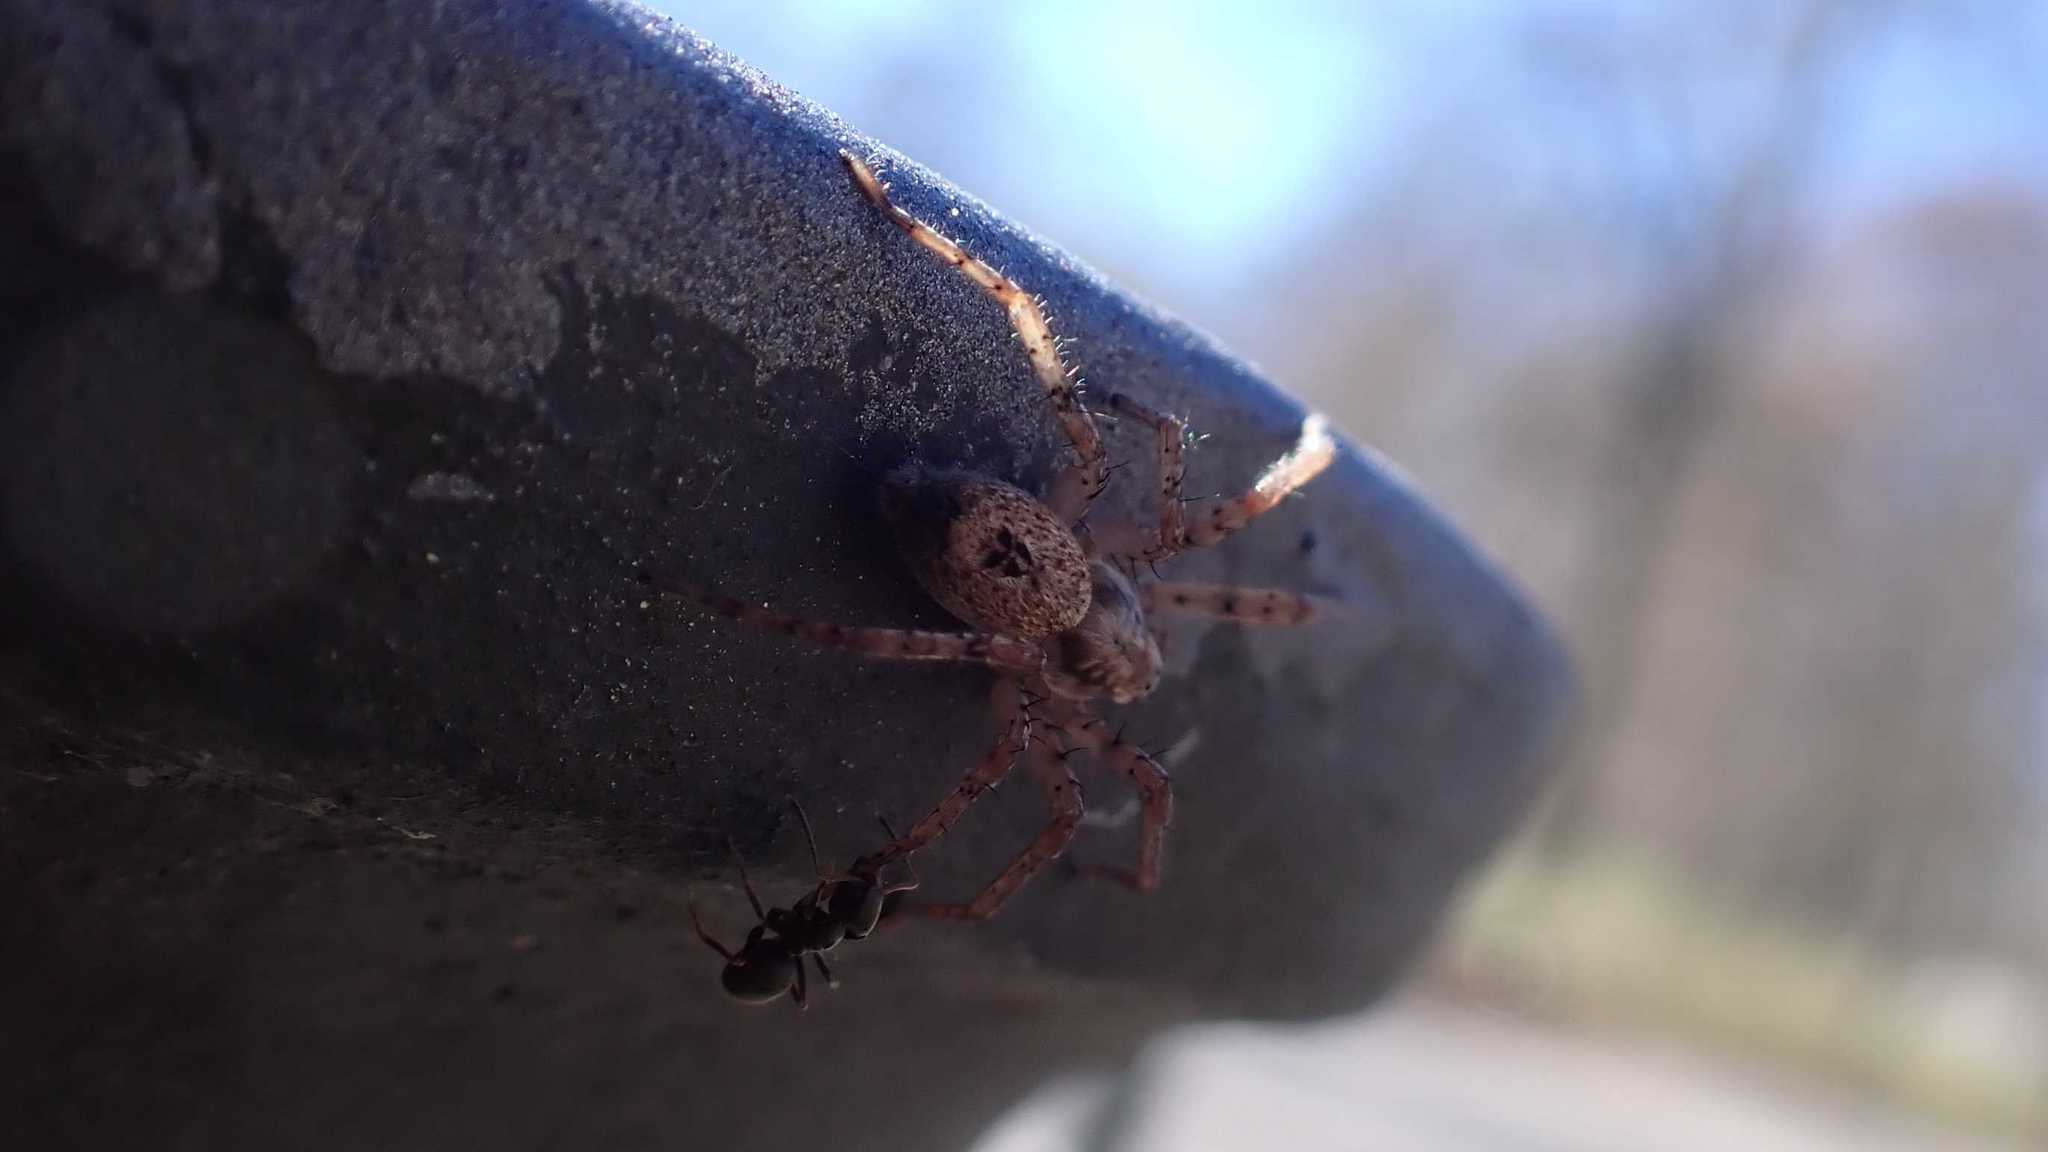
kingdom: Animalia
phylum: Arthropoda
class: Insecta
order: Hymenoptera
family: Formicidae
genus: Lasius
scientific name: Lasius
